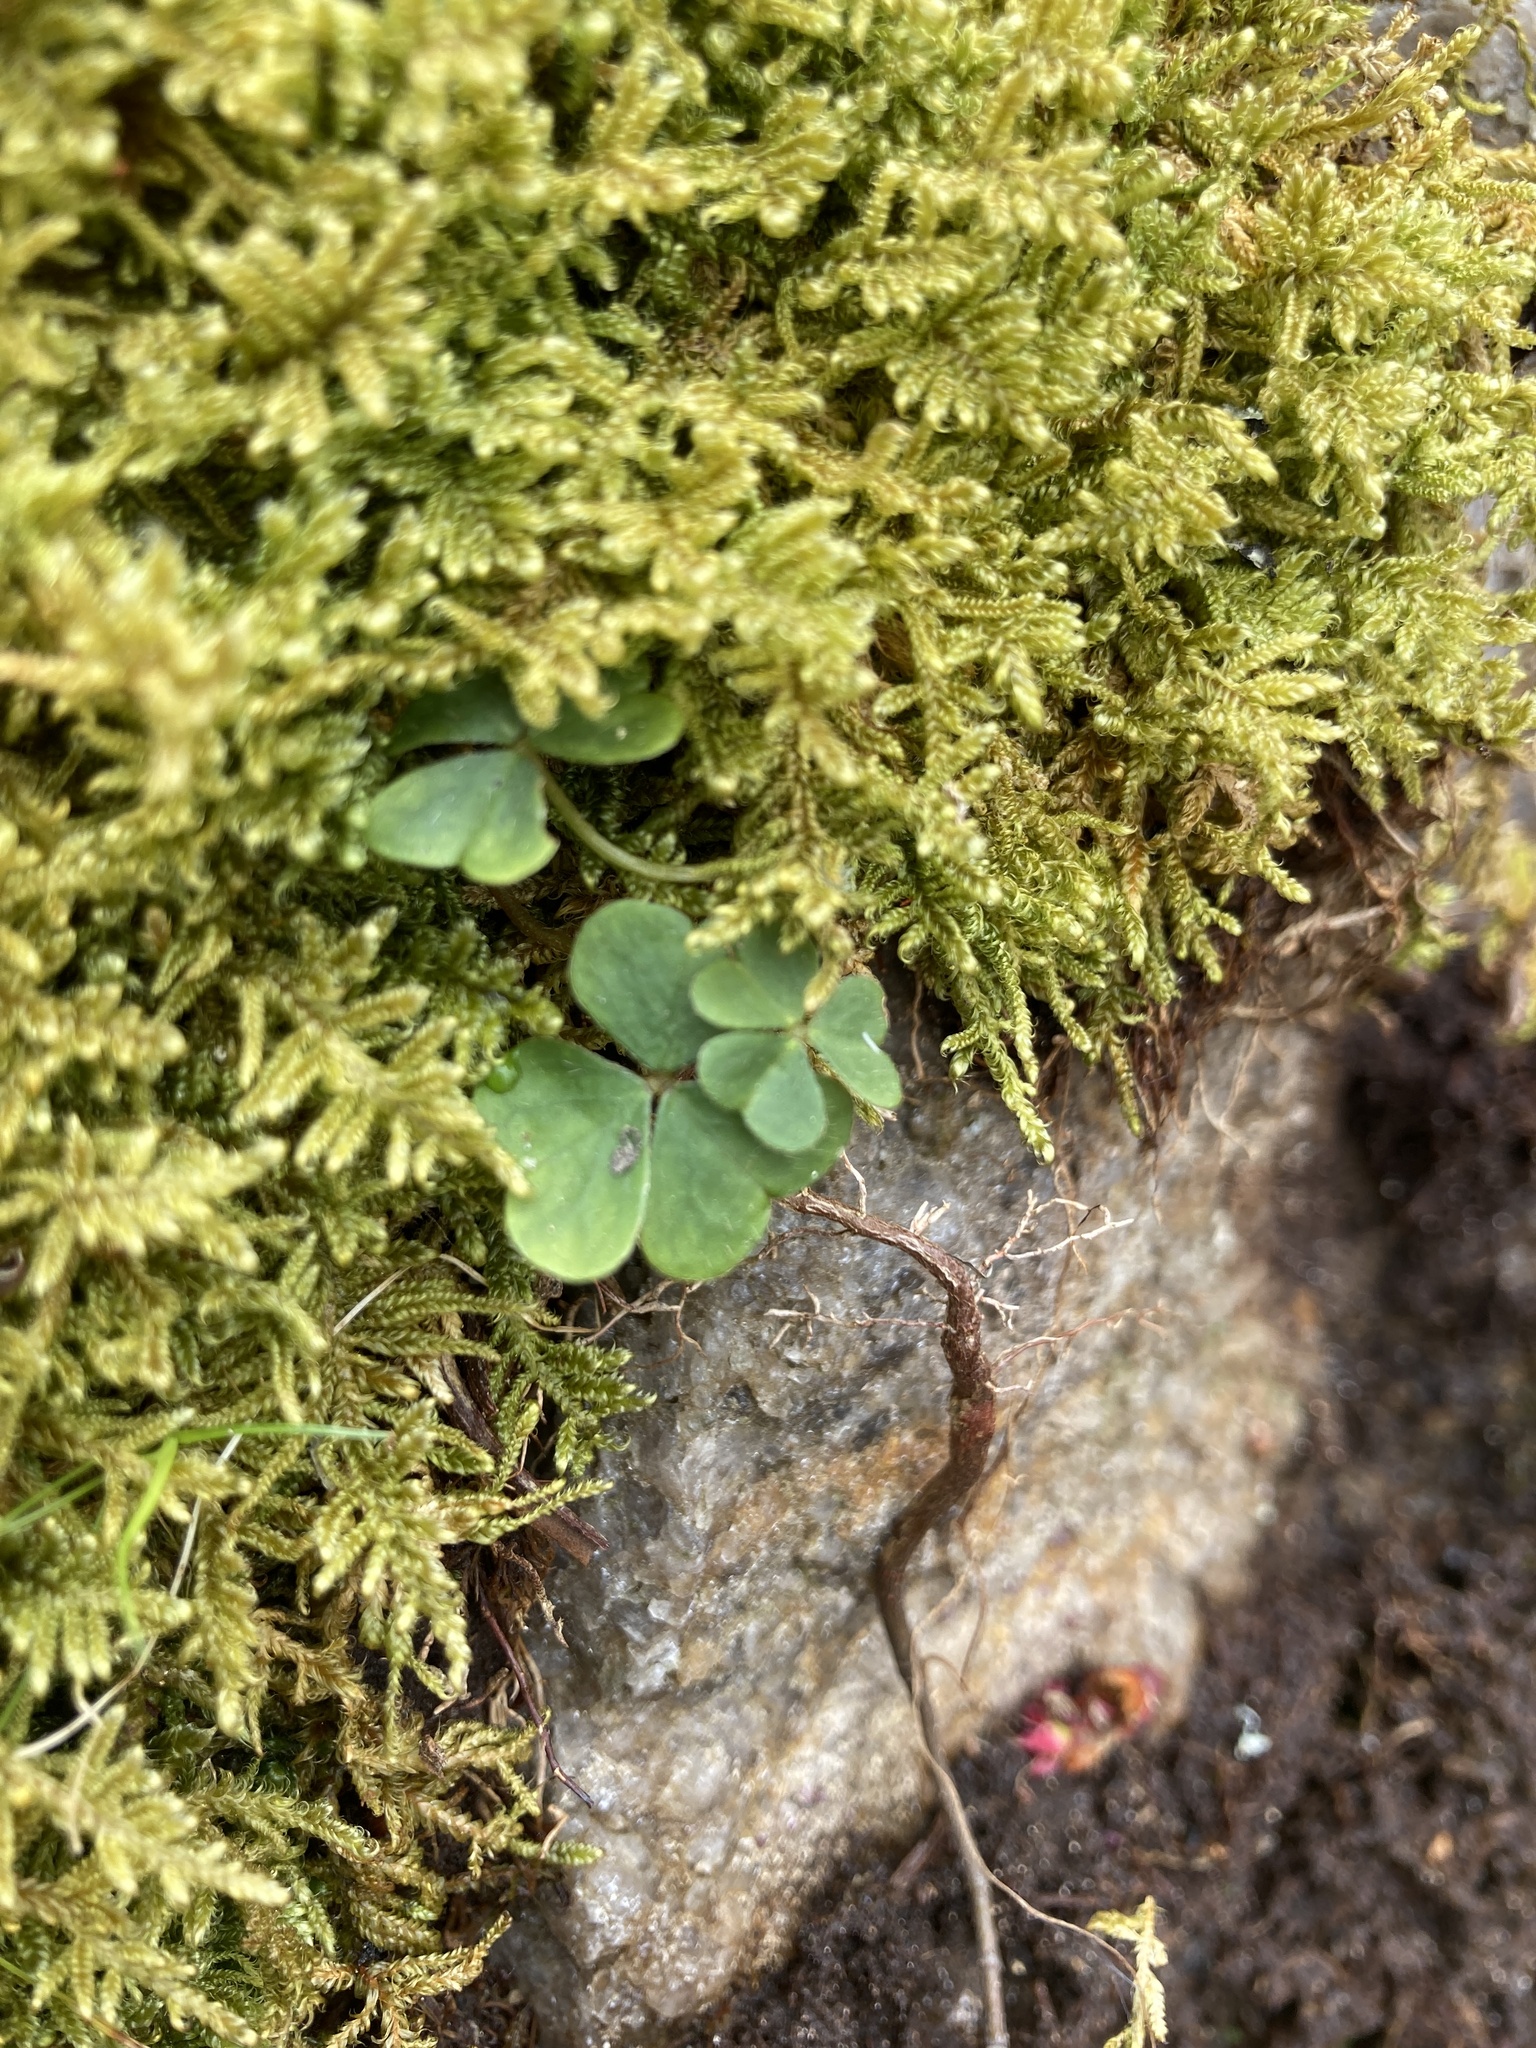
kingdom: Plantae
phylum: Tracheophyta
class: Magnoliopsida
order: Oxalidales
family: Oxalidaceae
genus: Oxalis
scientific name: Oxalis montana
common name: American wood-sorrel
